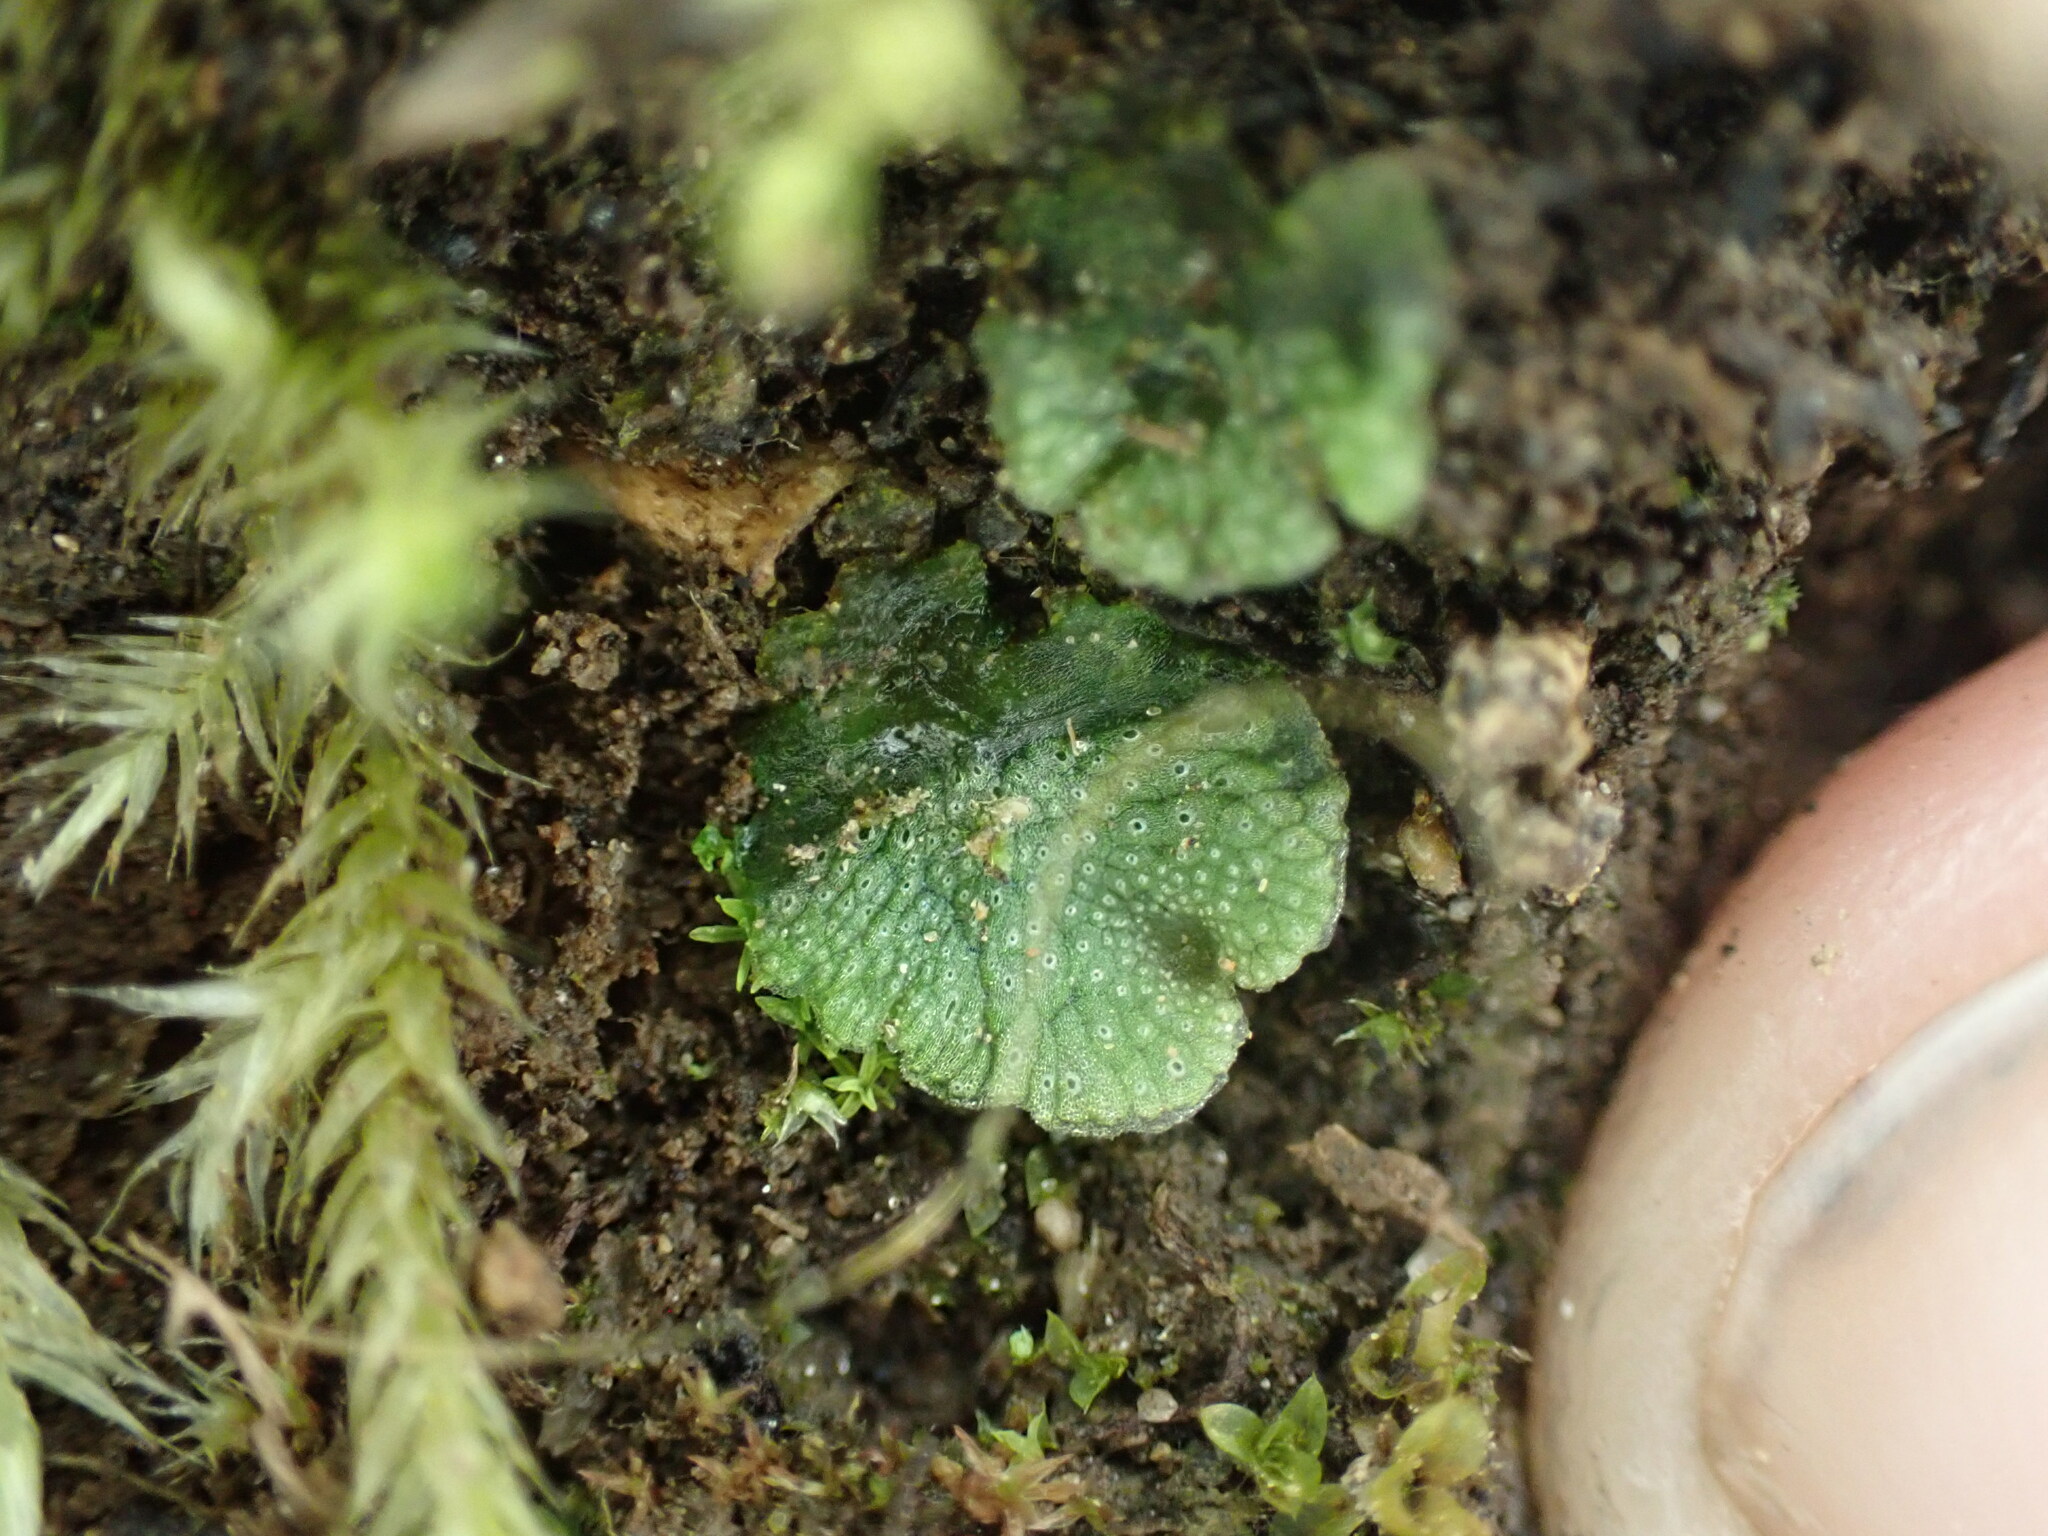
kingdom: Plantae
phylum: Marchantiophyta
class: Marchantiopsida
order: Marchantiales
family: Marchantiaceae
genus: Marchantia
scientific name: Marchantia polymorpha
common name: Common liverwort
